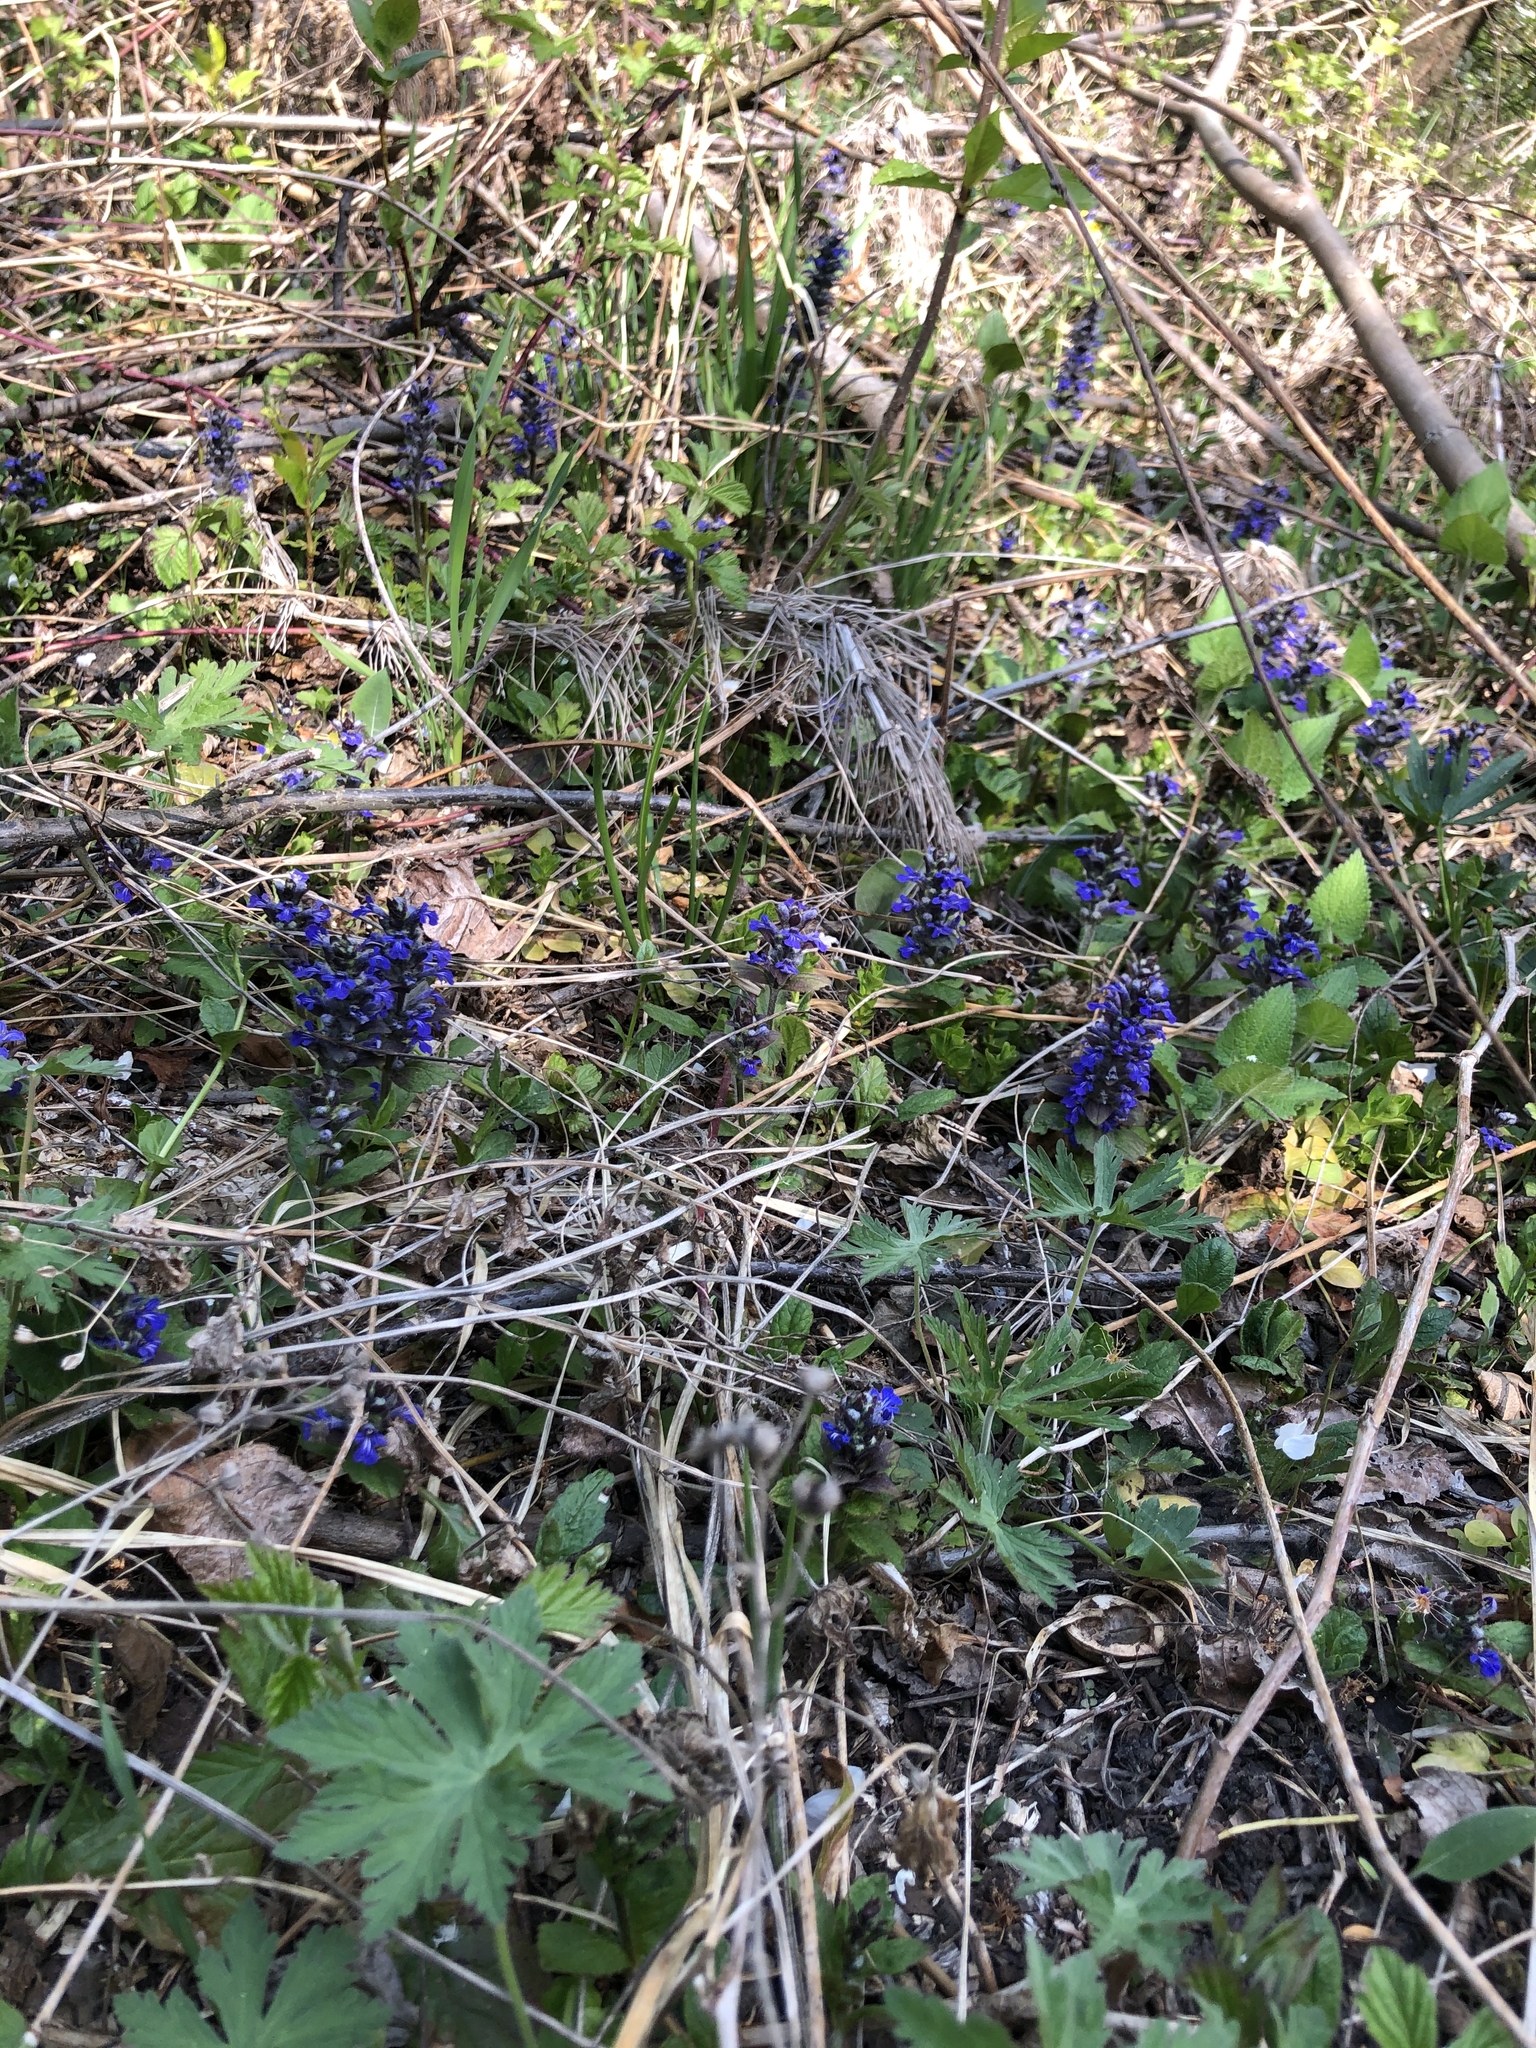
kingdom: Plantae
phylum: Tracheophyta
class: Magnoliopsida
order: Lamiales
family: Lamiaceae
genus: Ajuga
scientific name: Ajuga reptans
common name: Bugle
